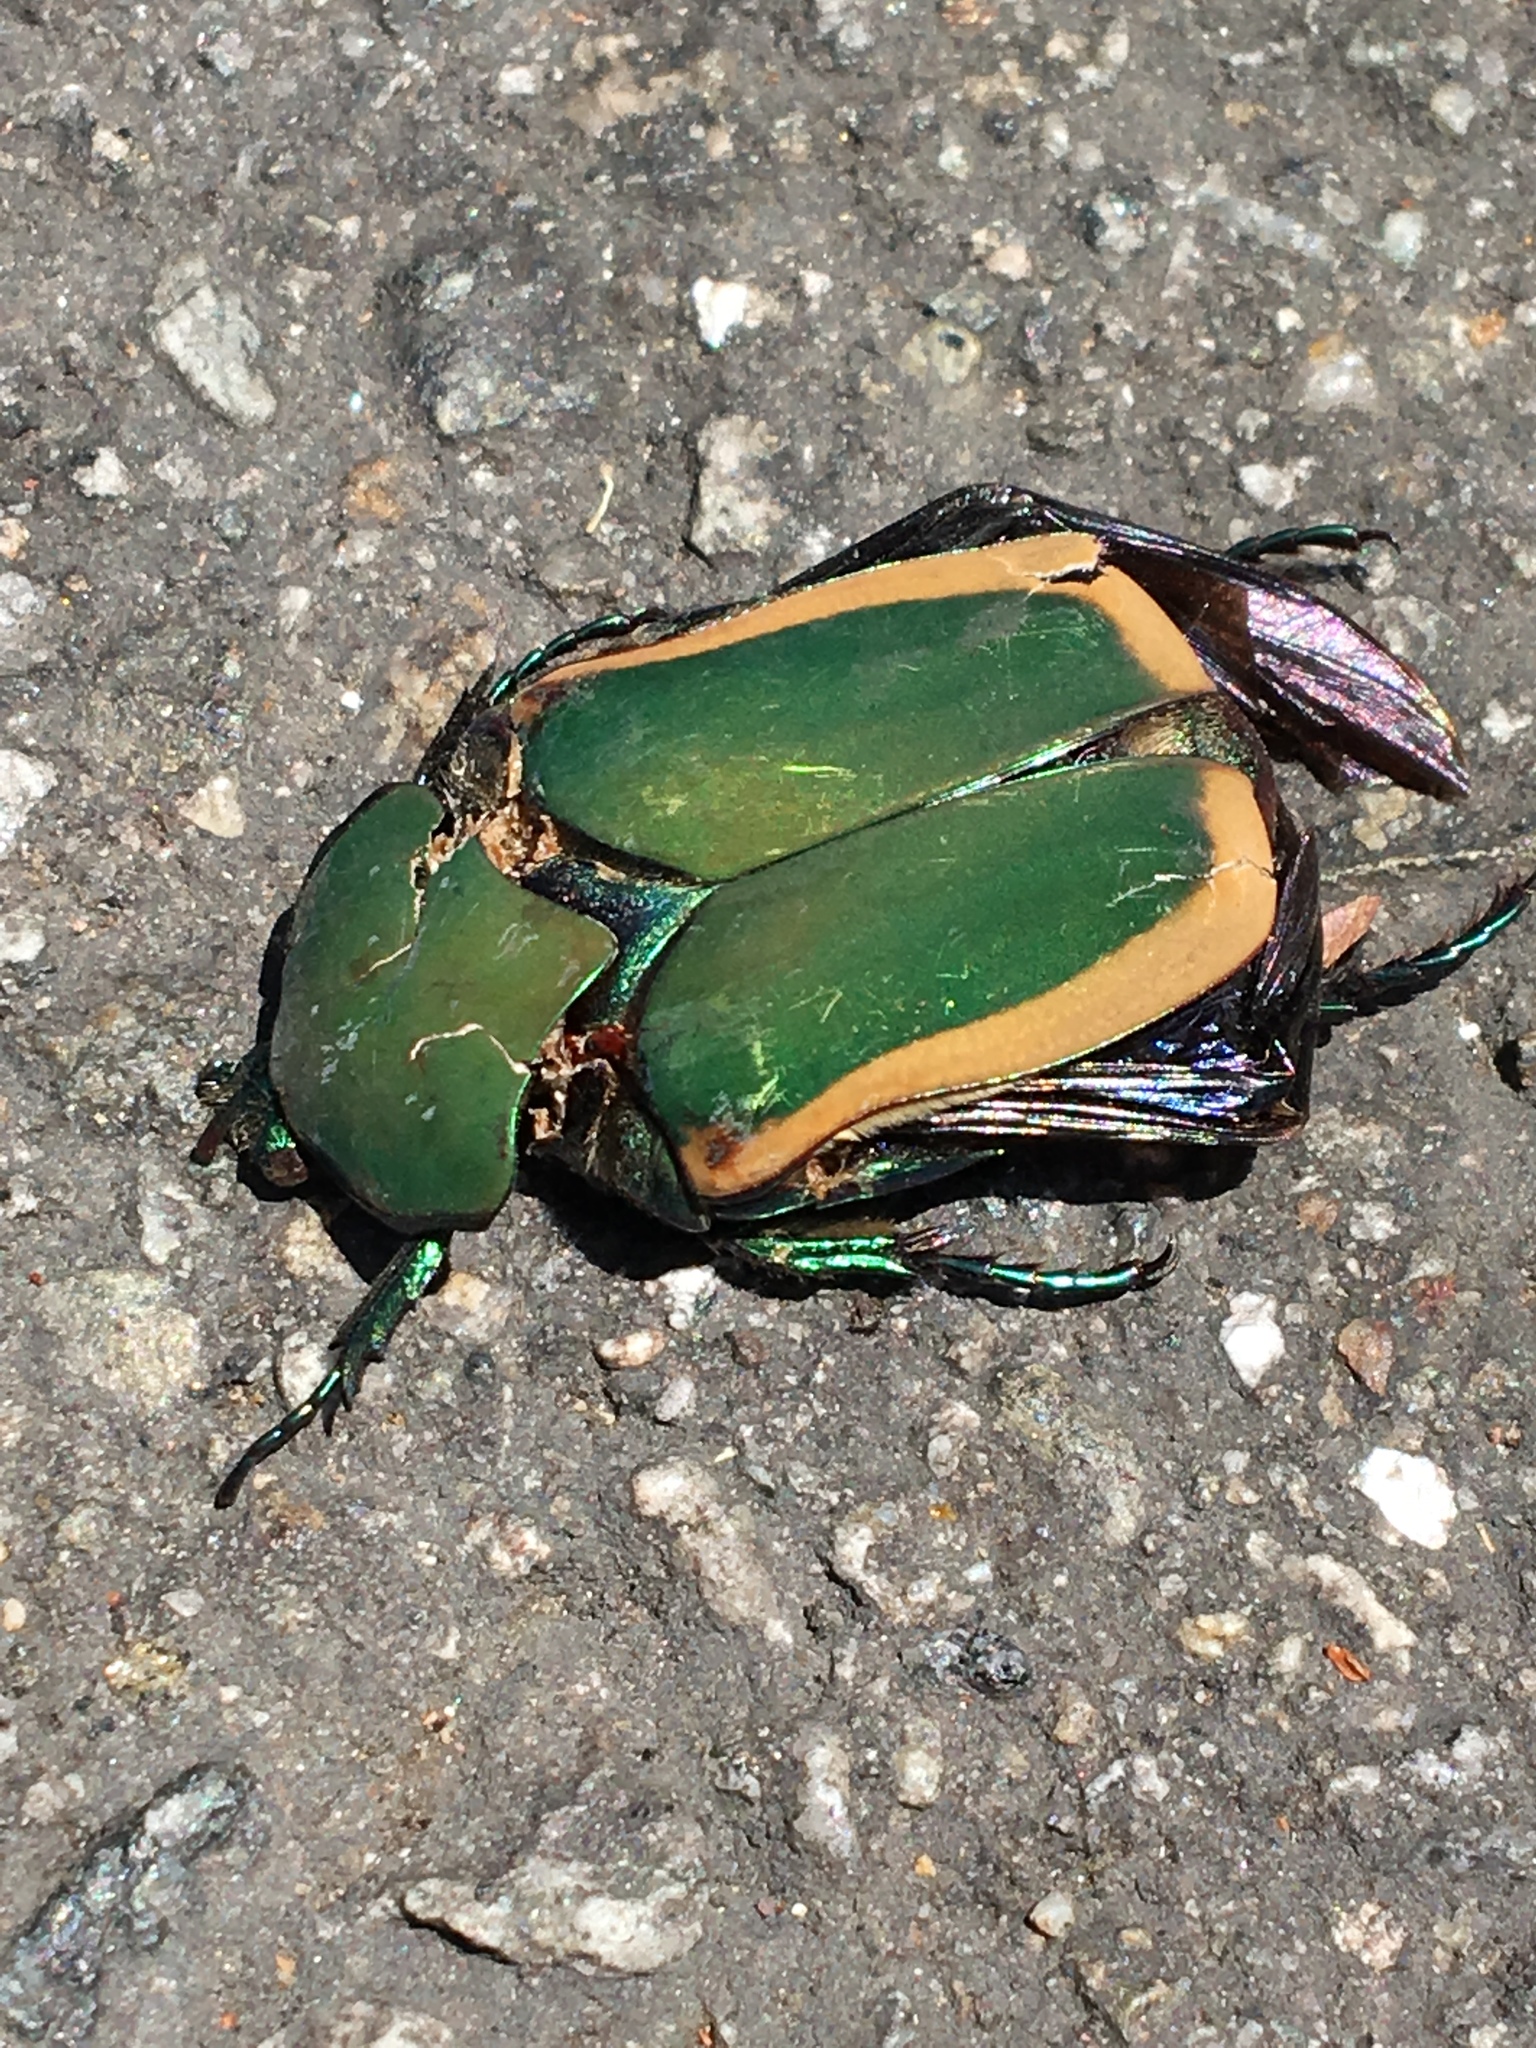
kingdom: Animalia
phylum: Arthropoda
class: Insecta
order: Coleoptera
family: Scarabaeidae
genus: Cotinis
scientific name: Cotinis mutabilis
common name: Figeater beetle
